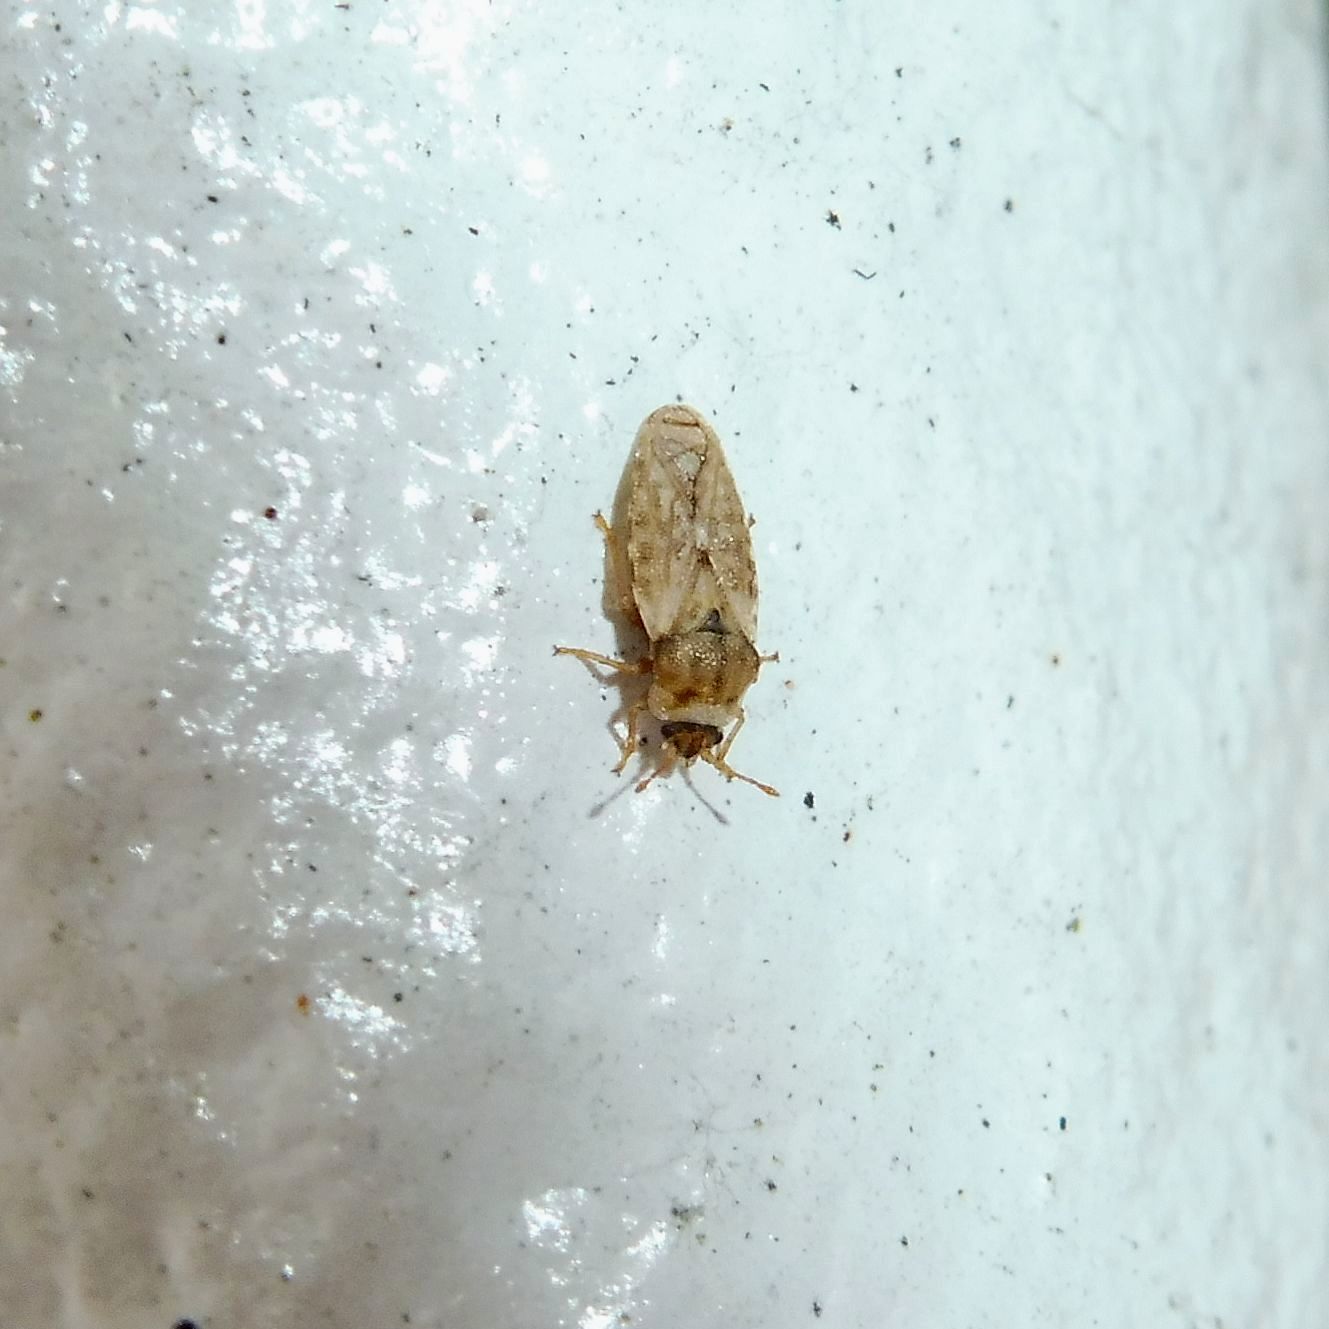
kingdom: Animalia
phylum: Arthropoda
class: Insecta
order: Hemiptera
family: Piesmatidae
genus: Piesma
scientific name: Piesma maculata
